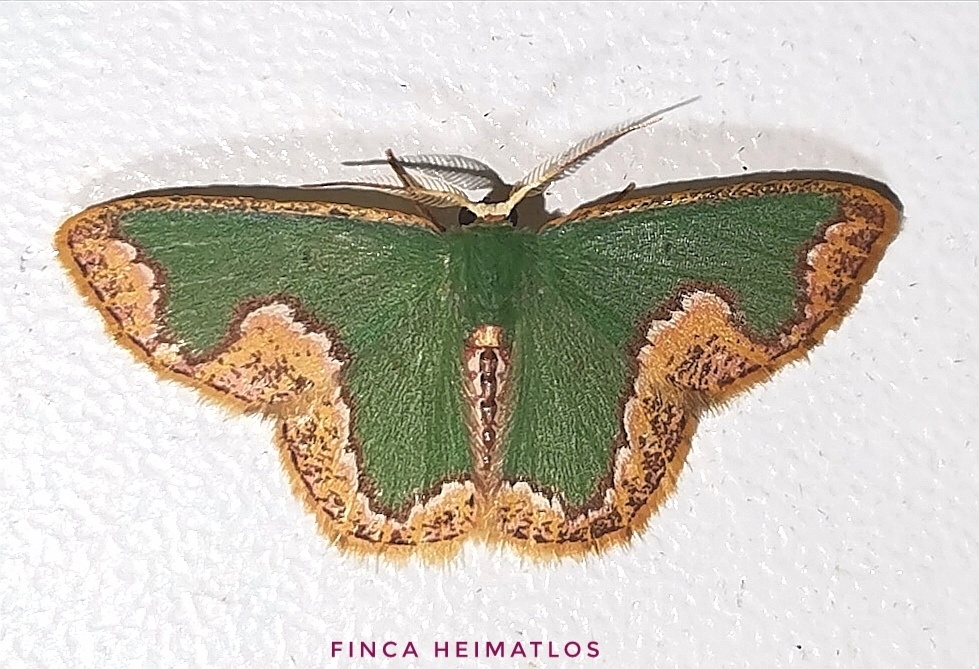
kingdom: Animalia
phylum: Arthropoda
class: Insecta
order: Lepidoptera
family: Geometridae
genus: Oospila
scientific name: Oospila pipa
